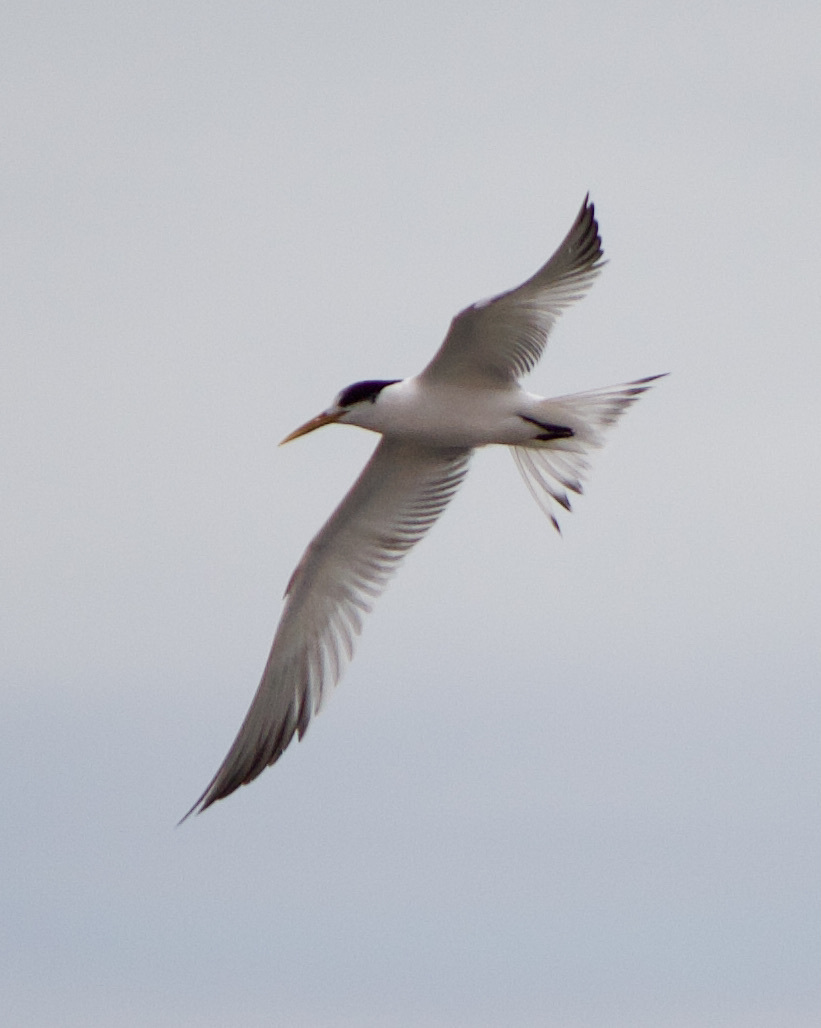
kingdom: Animalia
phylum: Chordata
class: Aves
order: Charadriiformes
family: Laridae
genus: Thalasseus
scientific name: Thalasseus elegans
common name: Elegant tern
